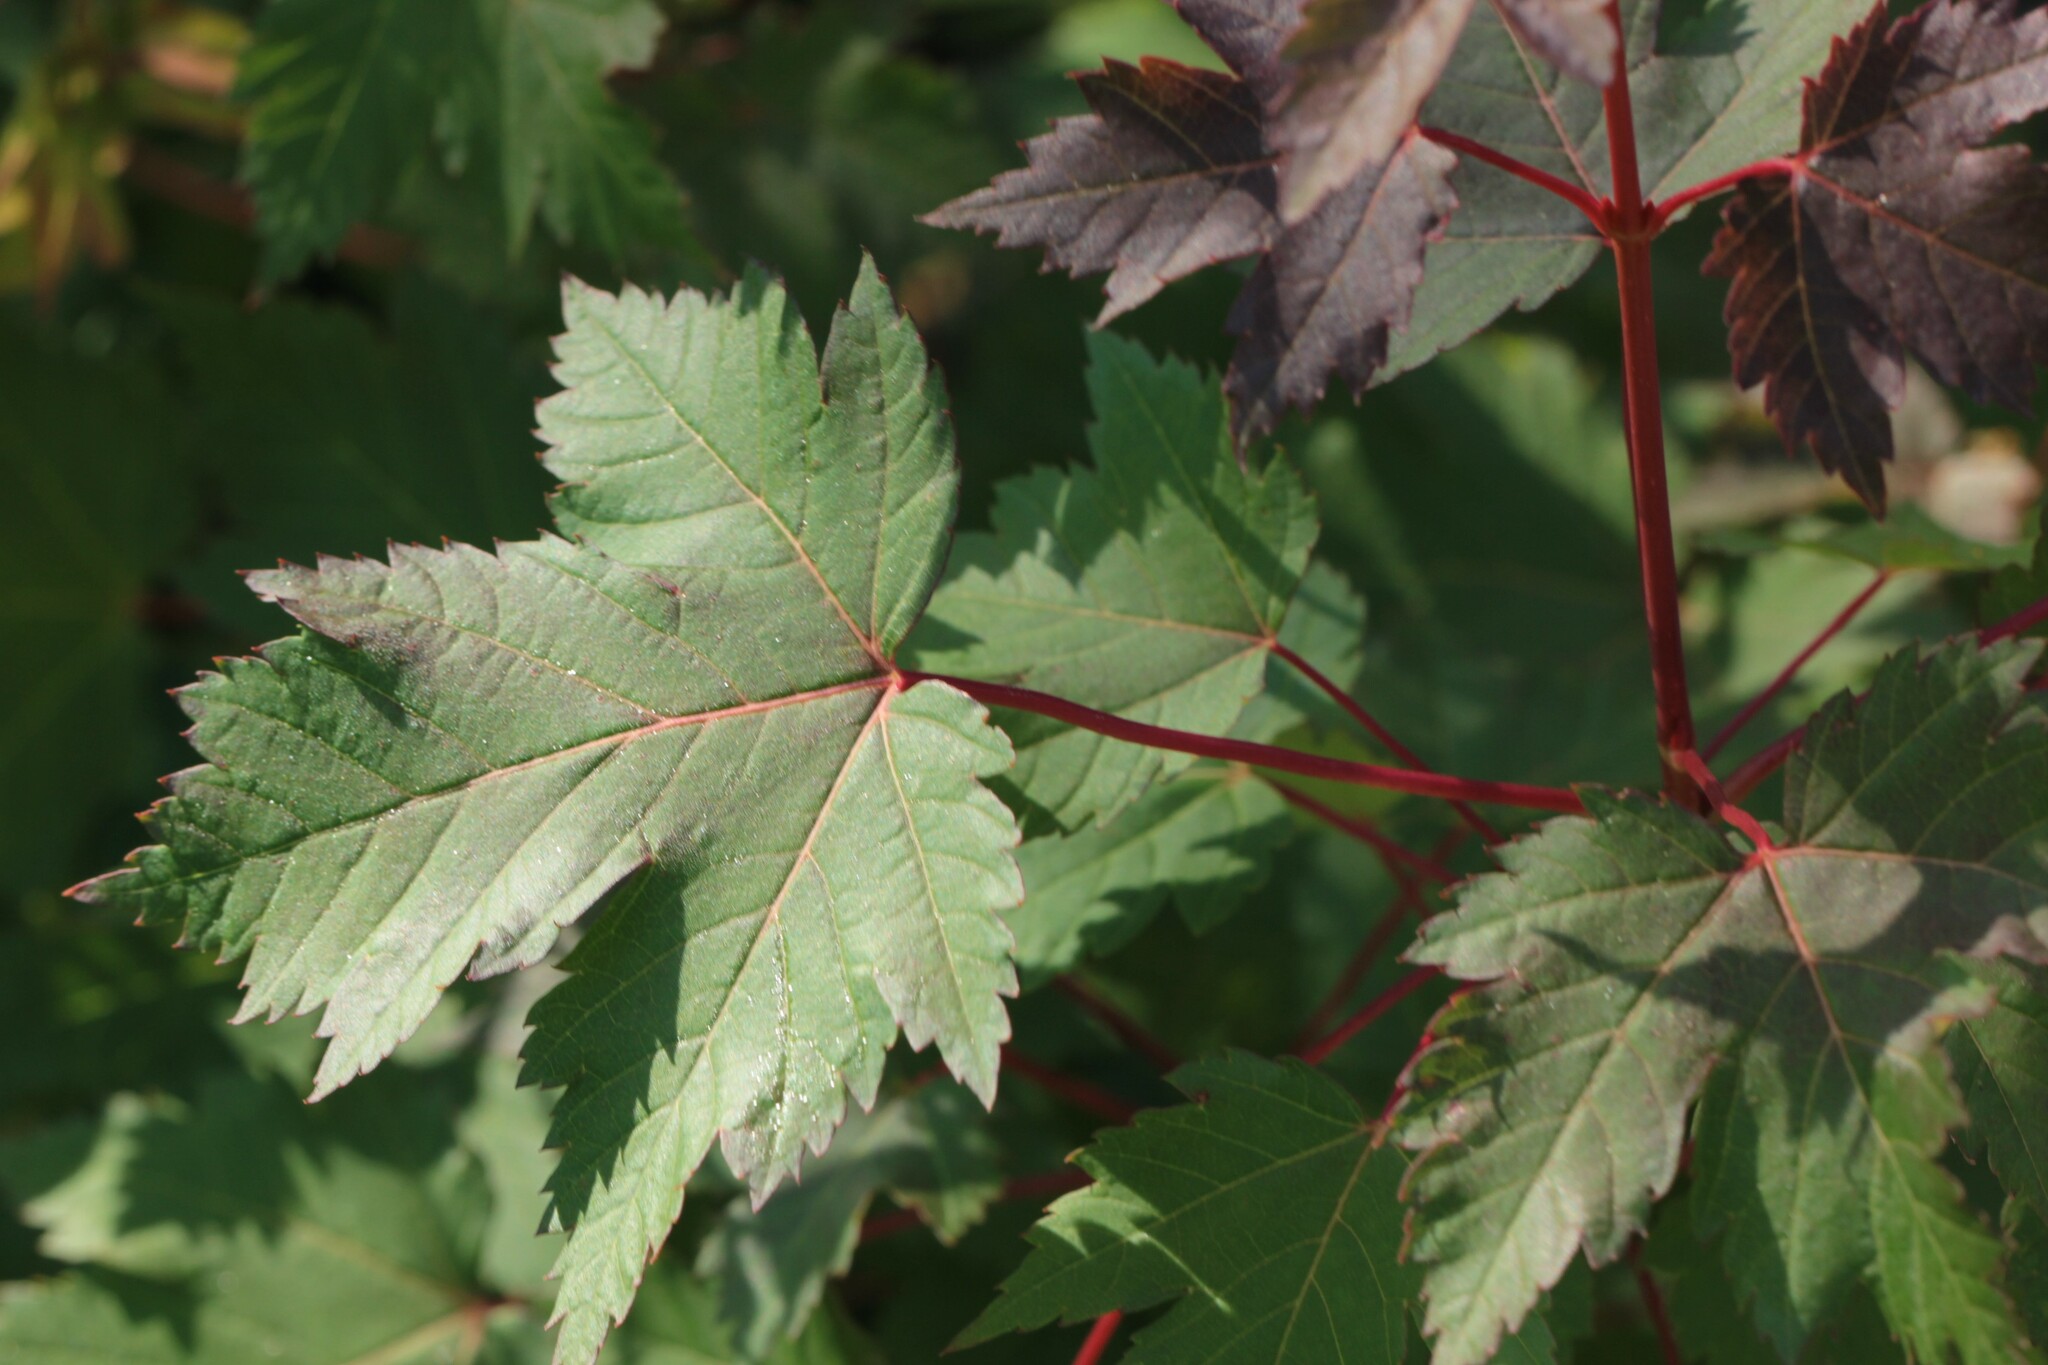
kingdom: Plantae
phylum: Tracheophyta
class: Magnoliopsida
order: Sapindales
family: Sapindaceae
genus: Acer
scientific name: Acer glabrum
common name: Rocky mountain maple
